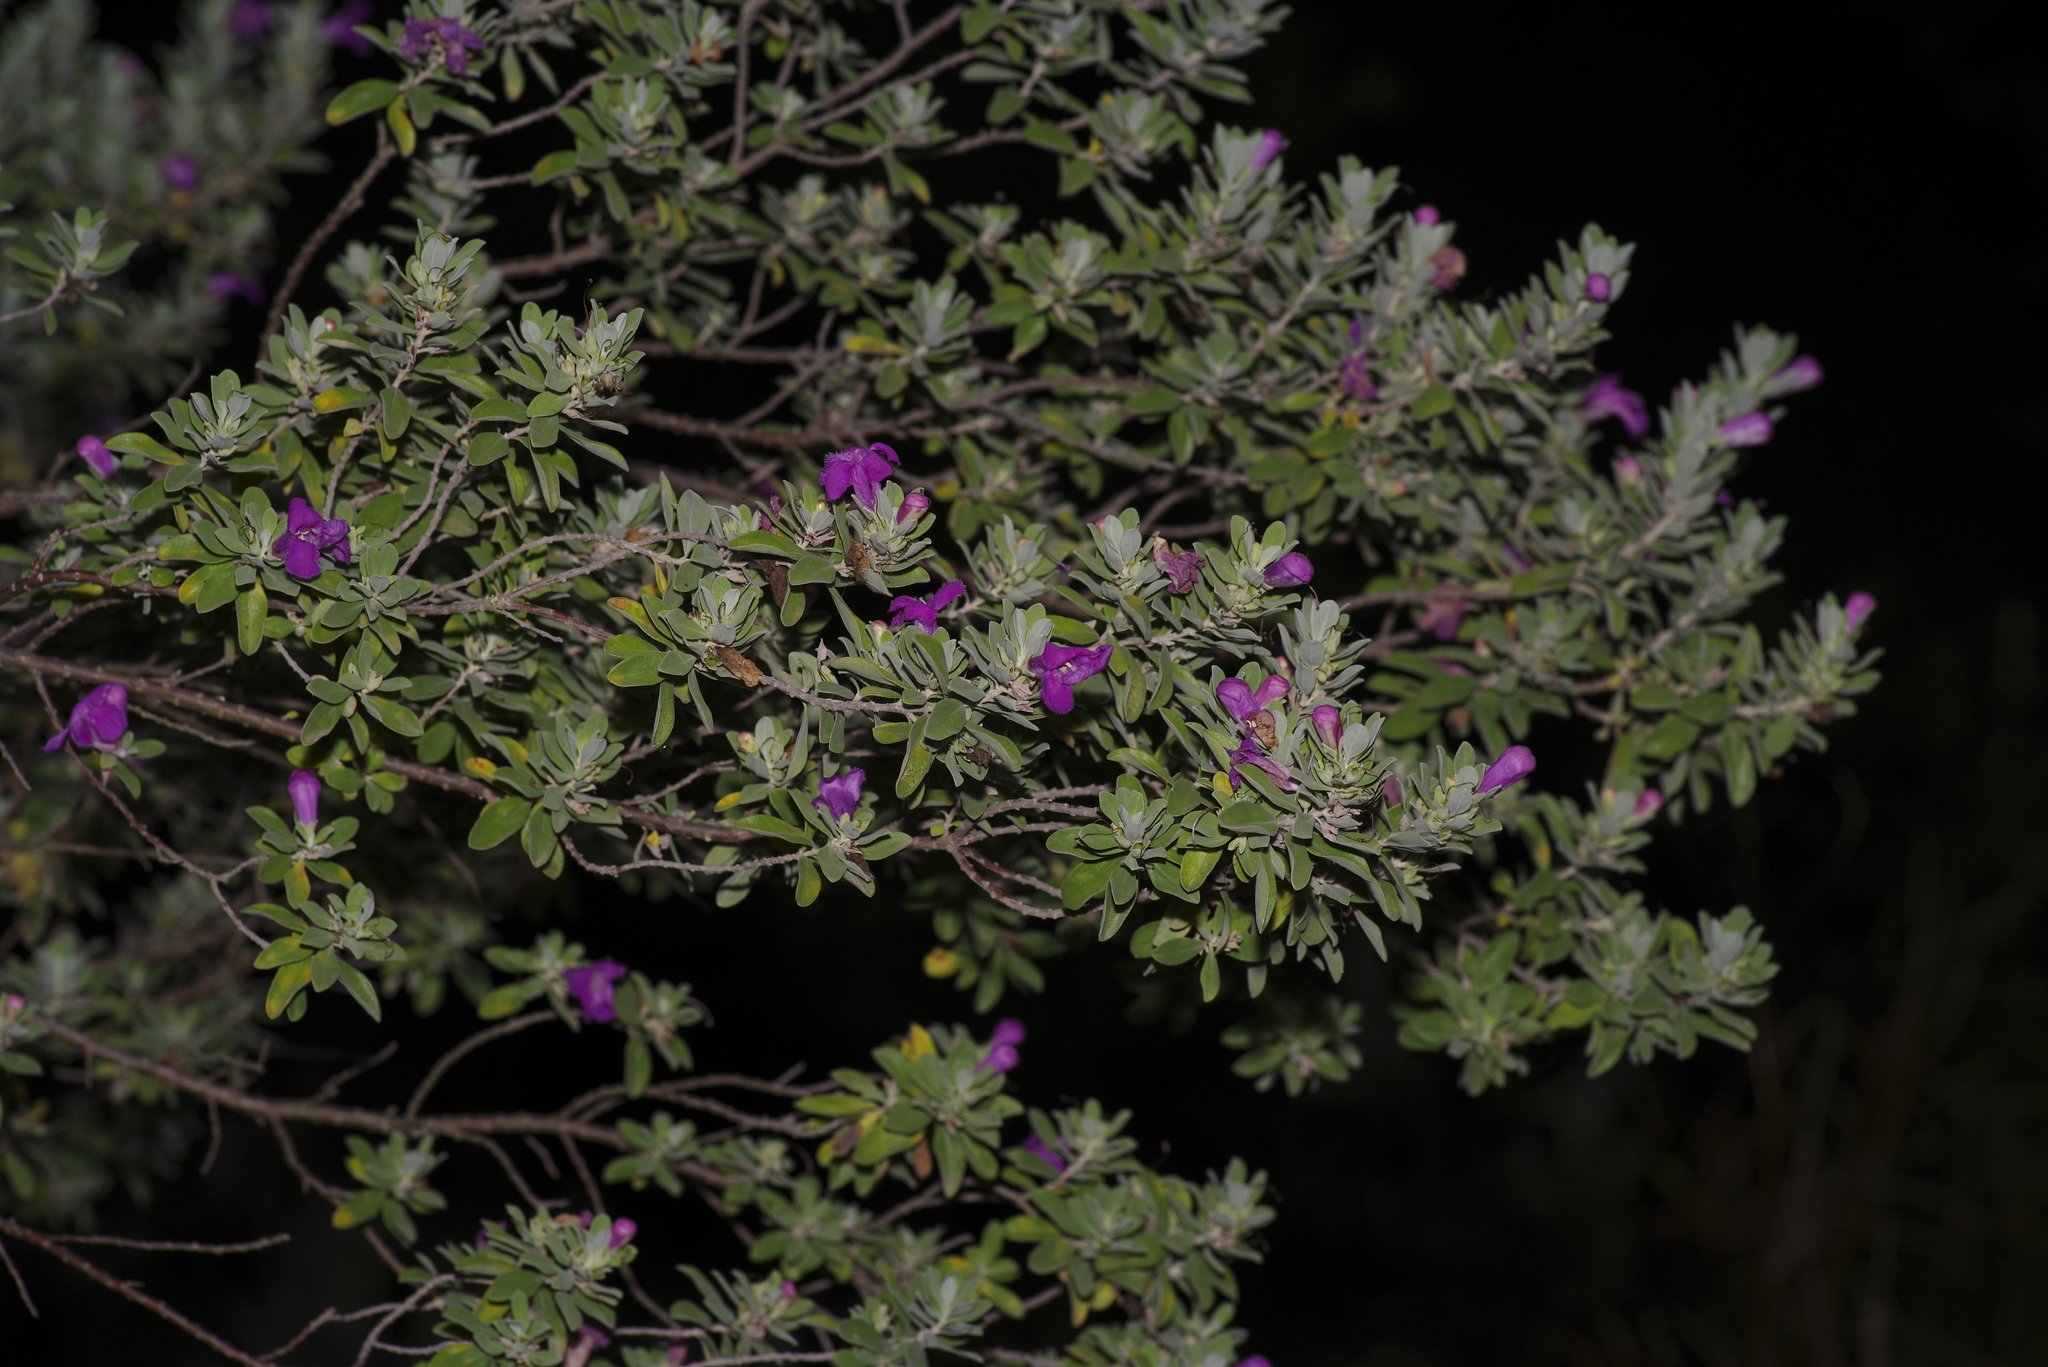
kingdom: Plantae
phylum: Tracheophyta
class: Magnoliopsida
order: Lamiales
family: Scrophulariaceae
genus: Leucophyllum
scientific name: Leucophyllum frutescens
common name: Texas silverleaf
